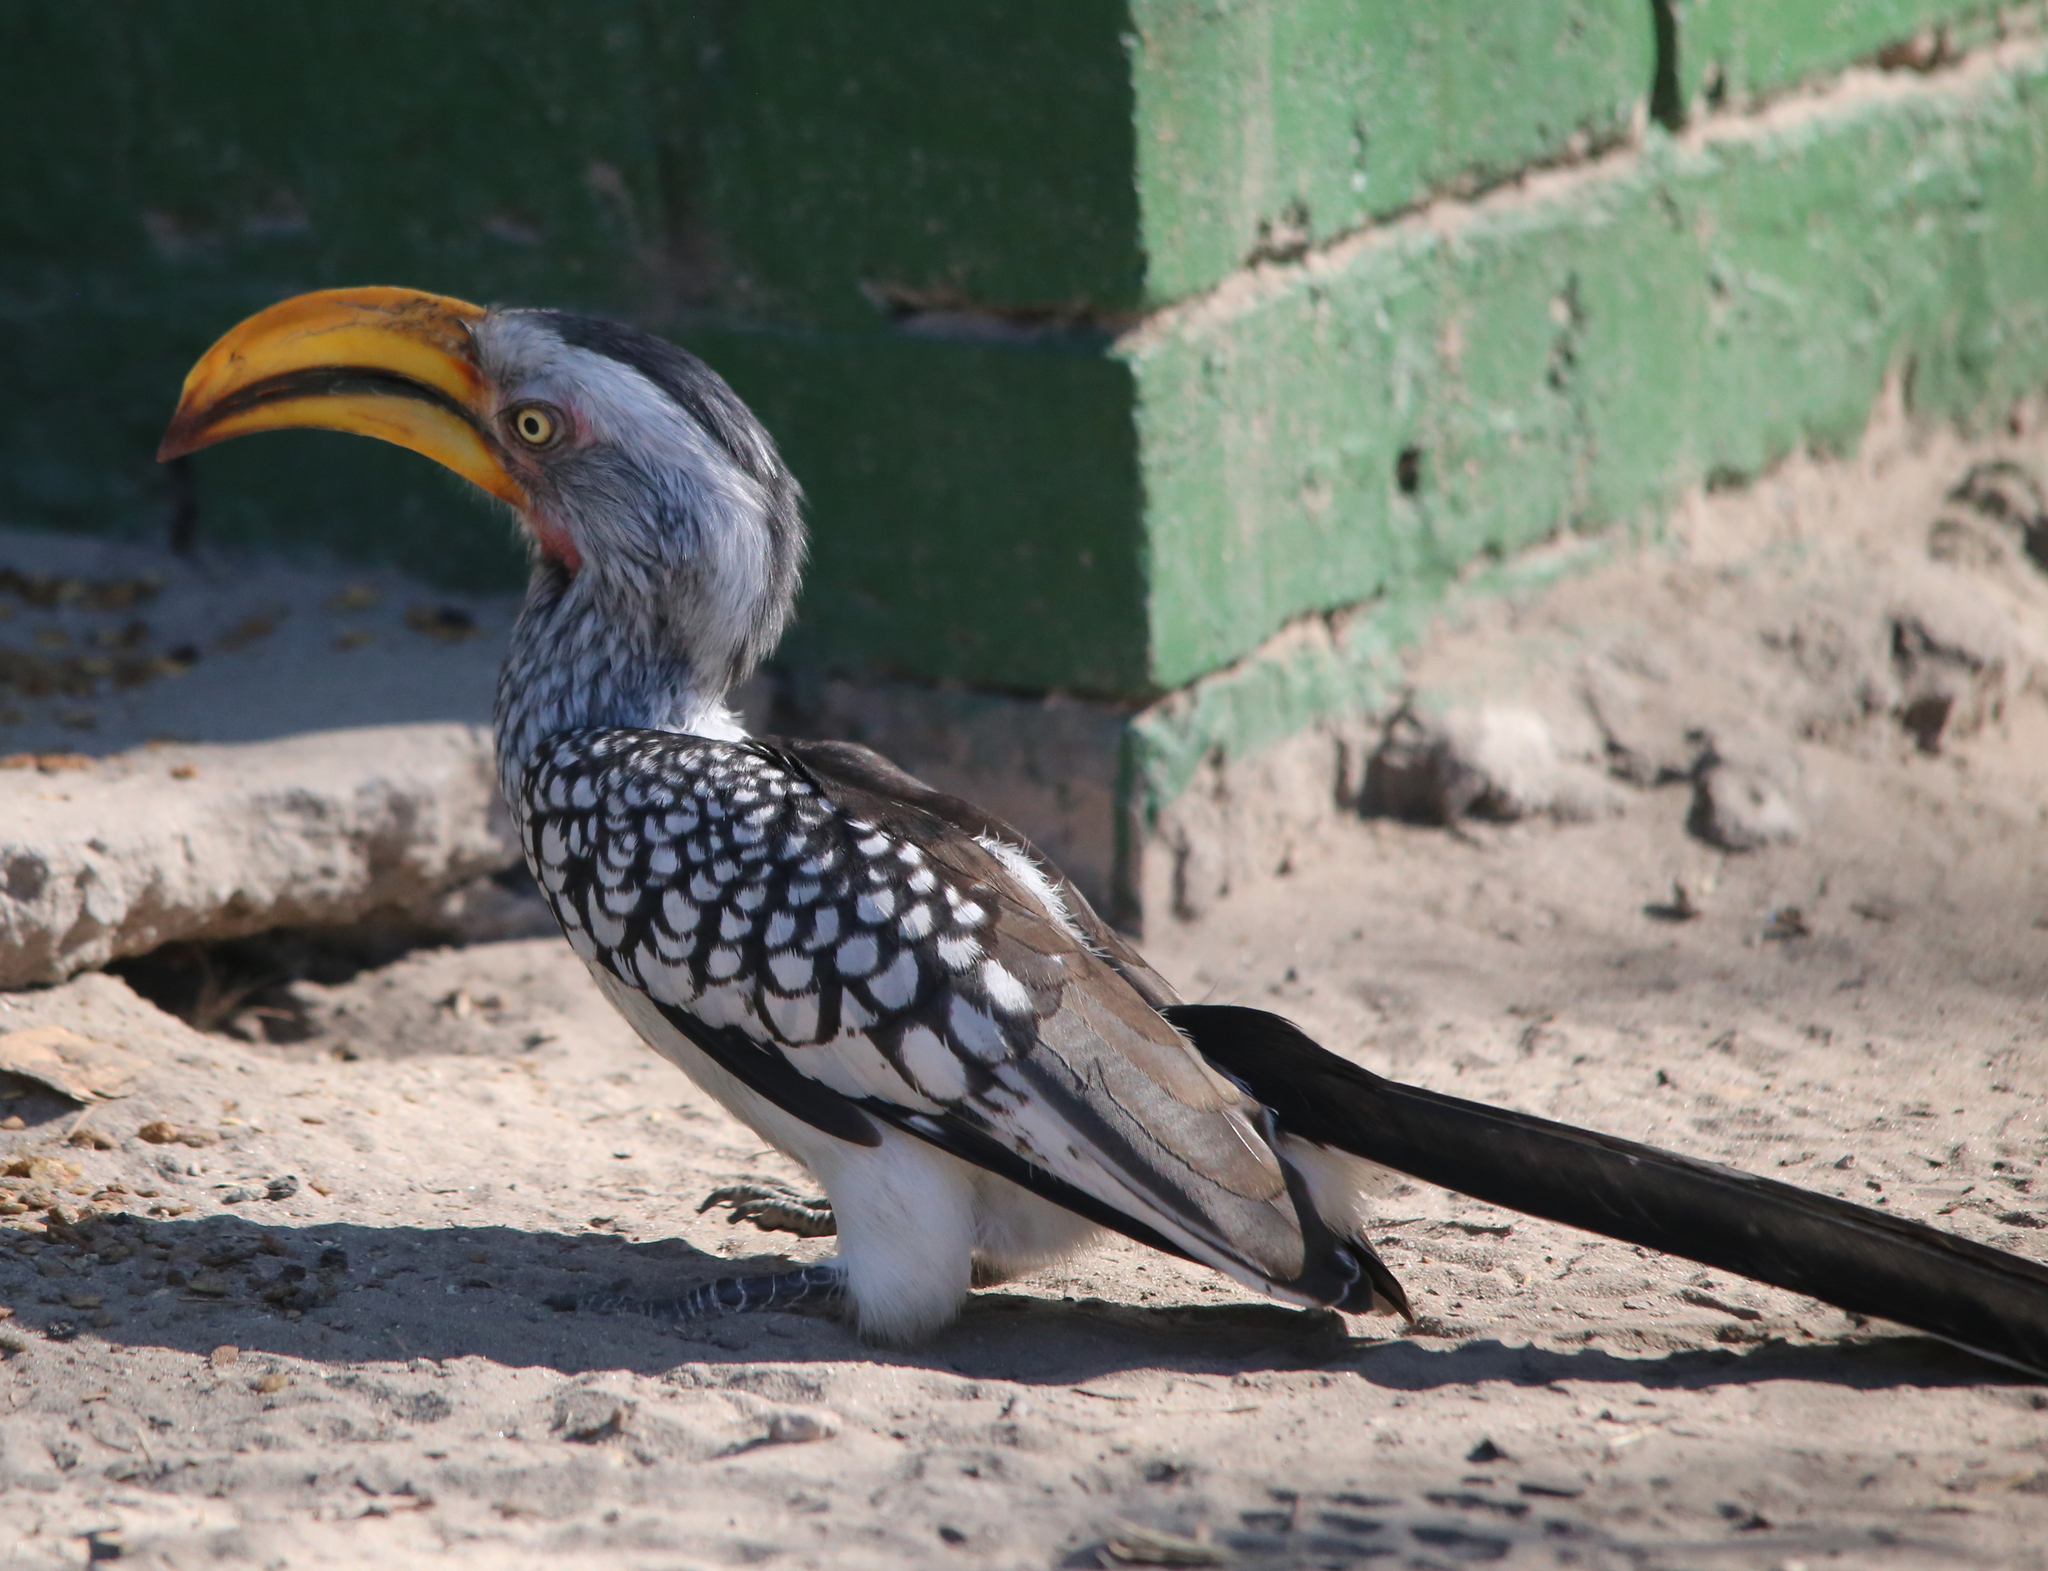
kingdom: Animalia
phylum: Chordata
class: Aves
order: Bucerotiformes
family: Bucerotidae
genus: Tockus
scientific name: Tockus leucomelas
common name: Southern yellow-billed hornbill
